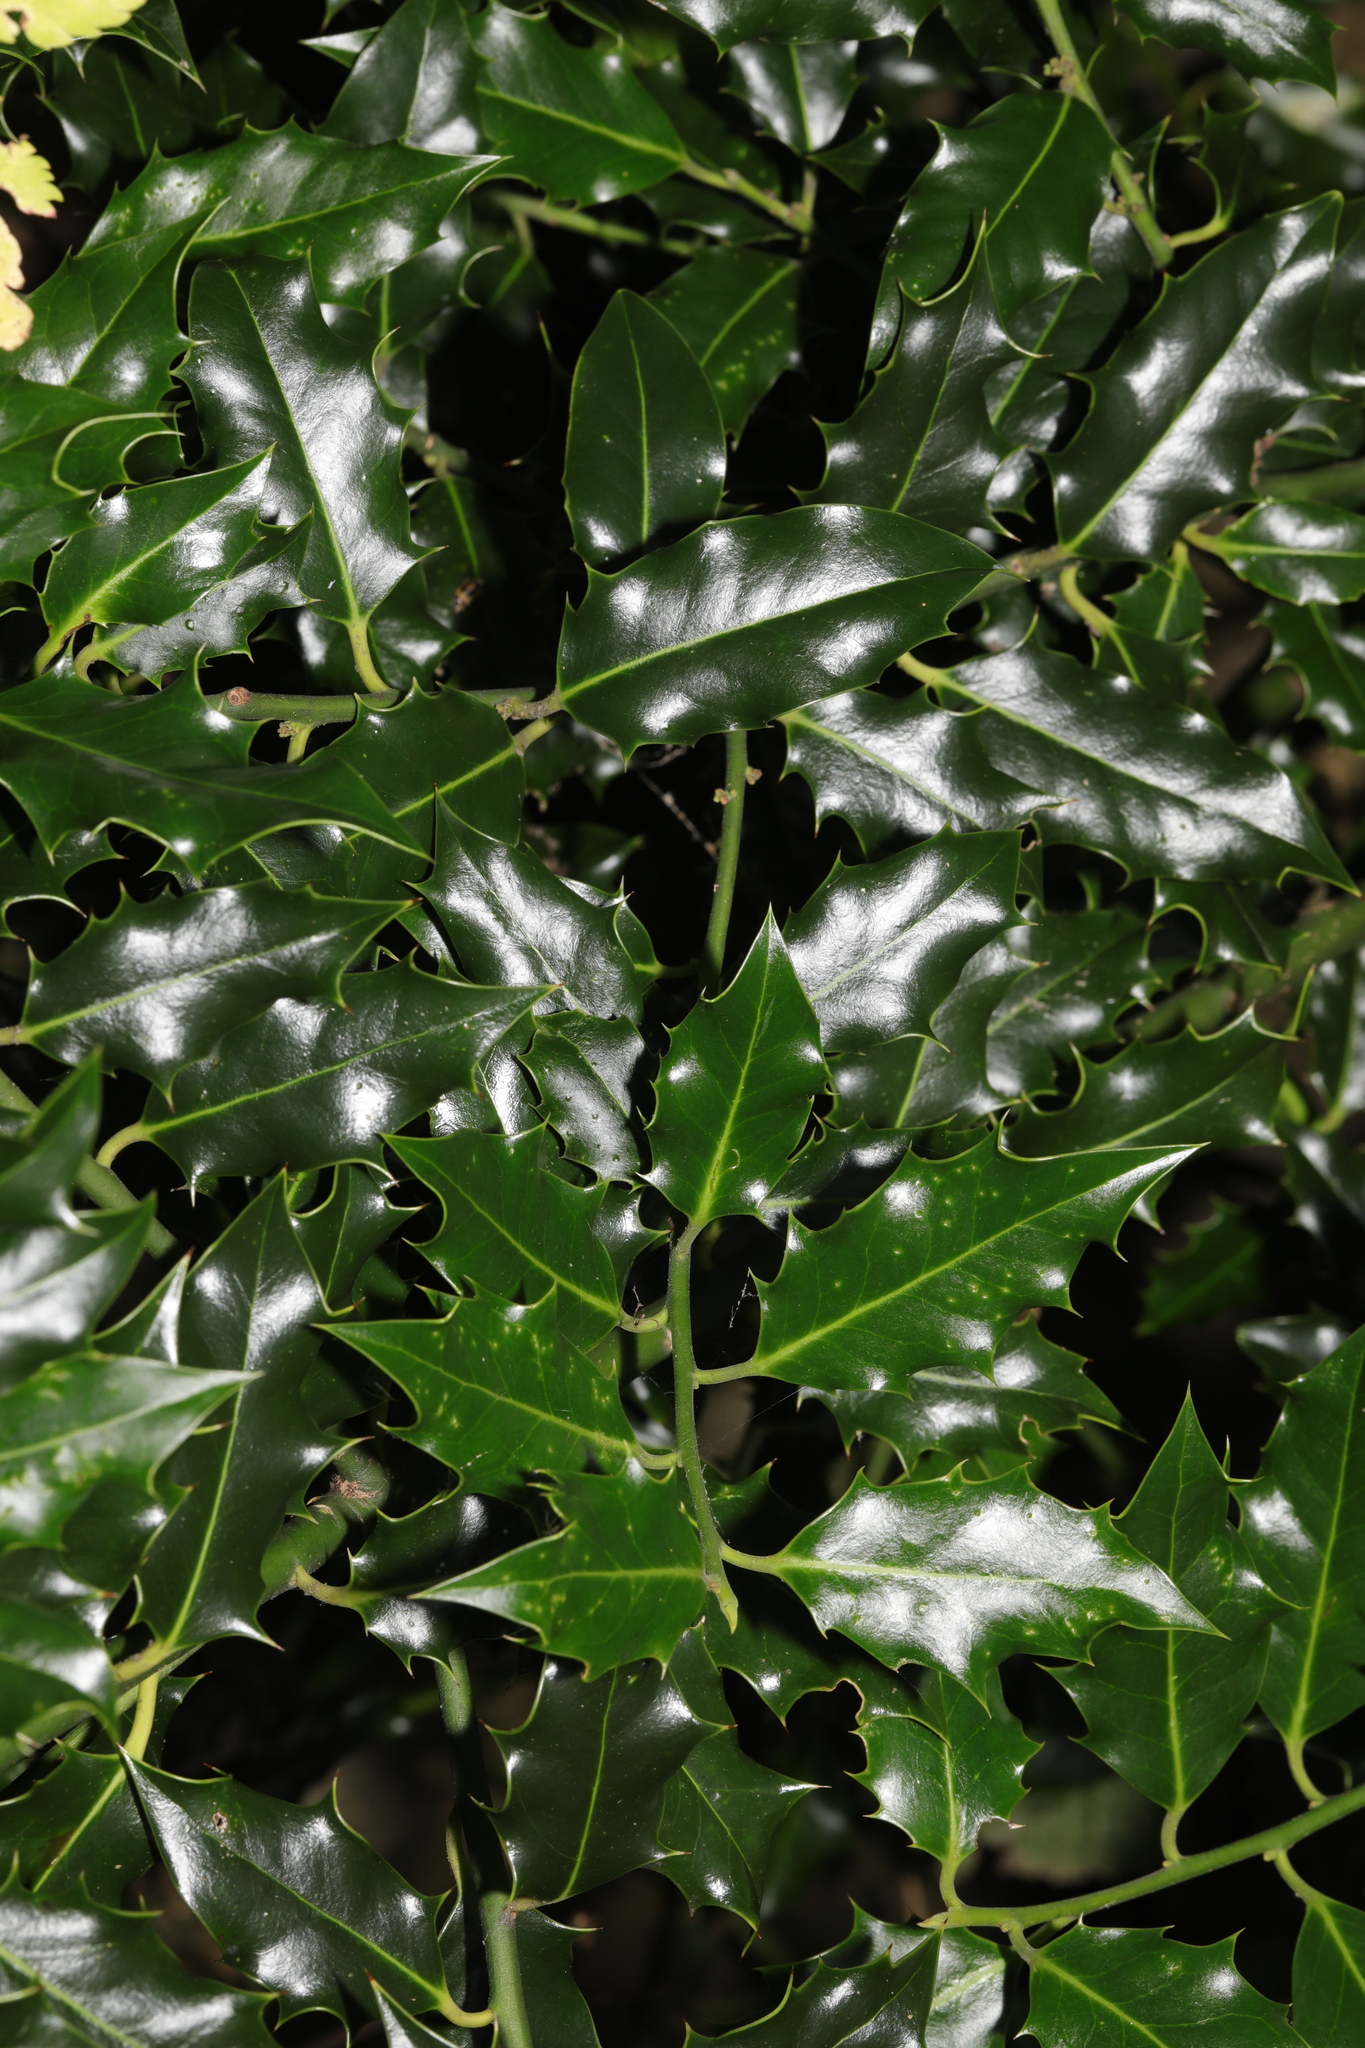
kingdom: Plantae
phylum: Tracheophyta
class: Magnoliopsida
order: Aquifoliales
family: Aquifoliaceae
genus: Ilex
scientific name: Ilex aquifolium
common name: English holly
